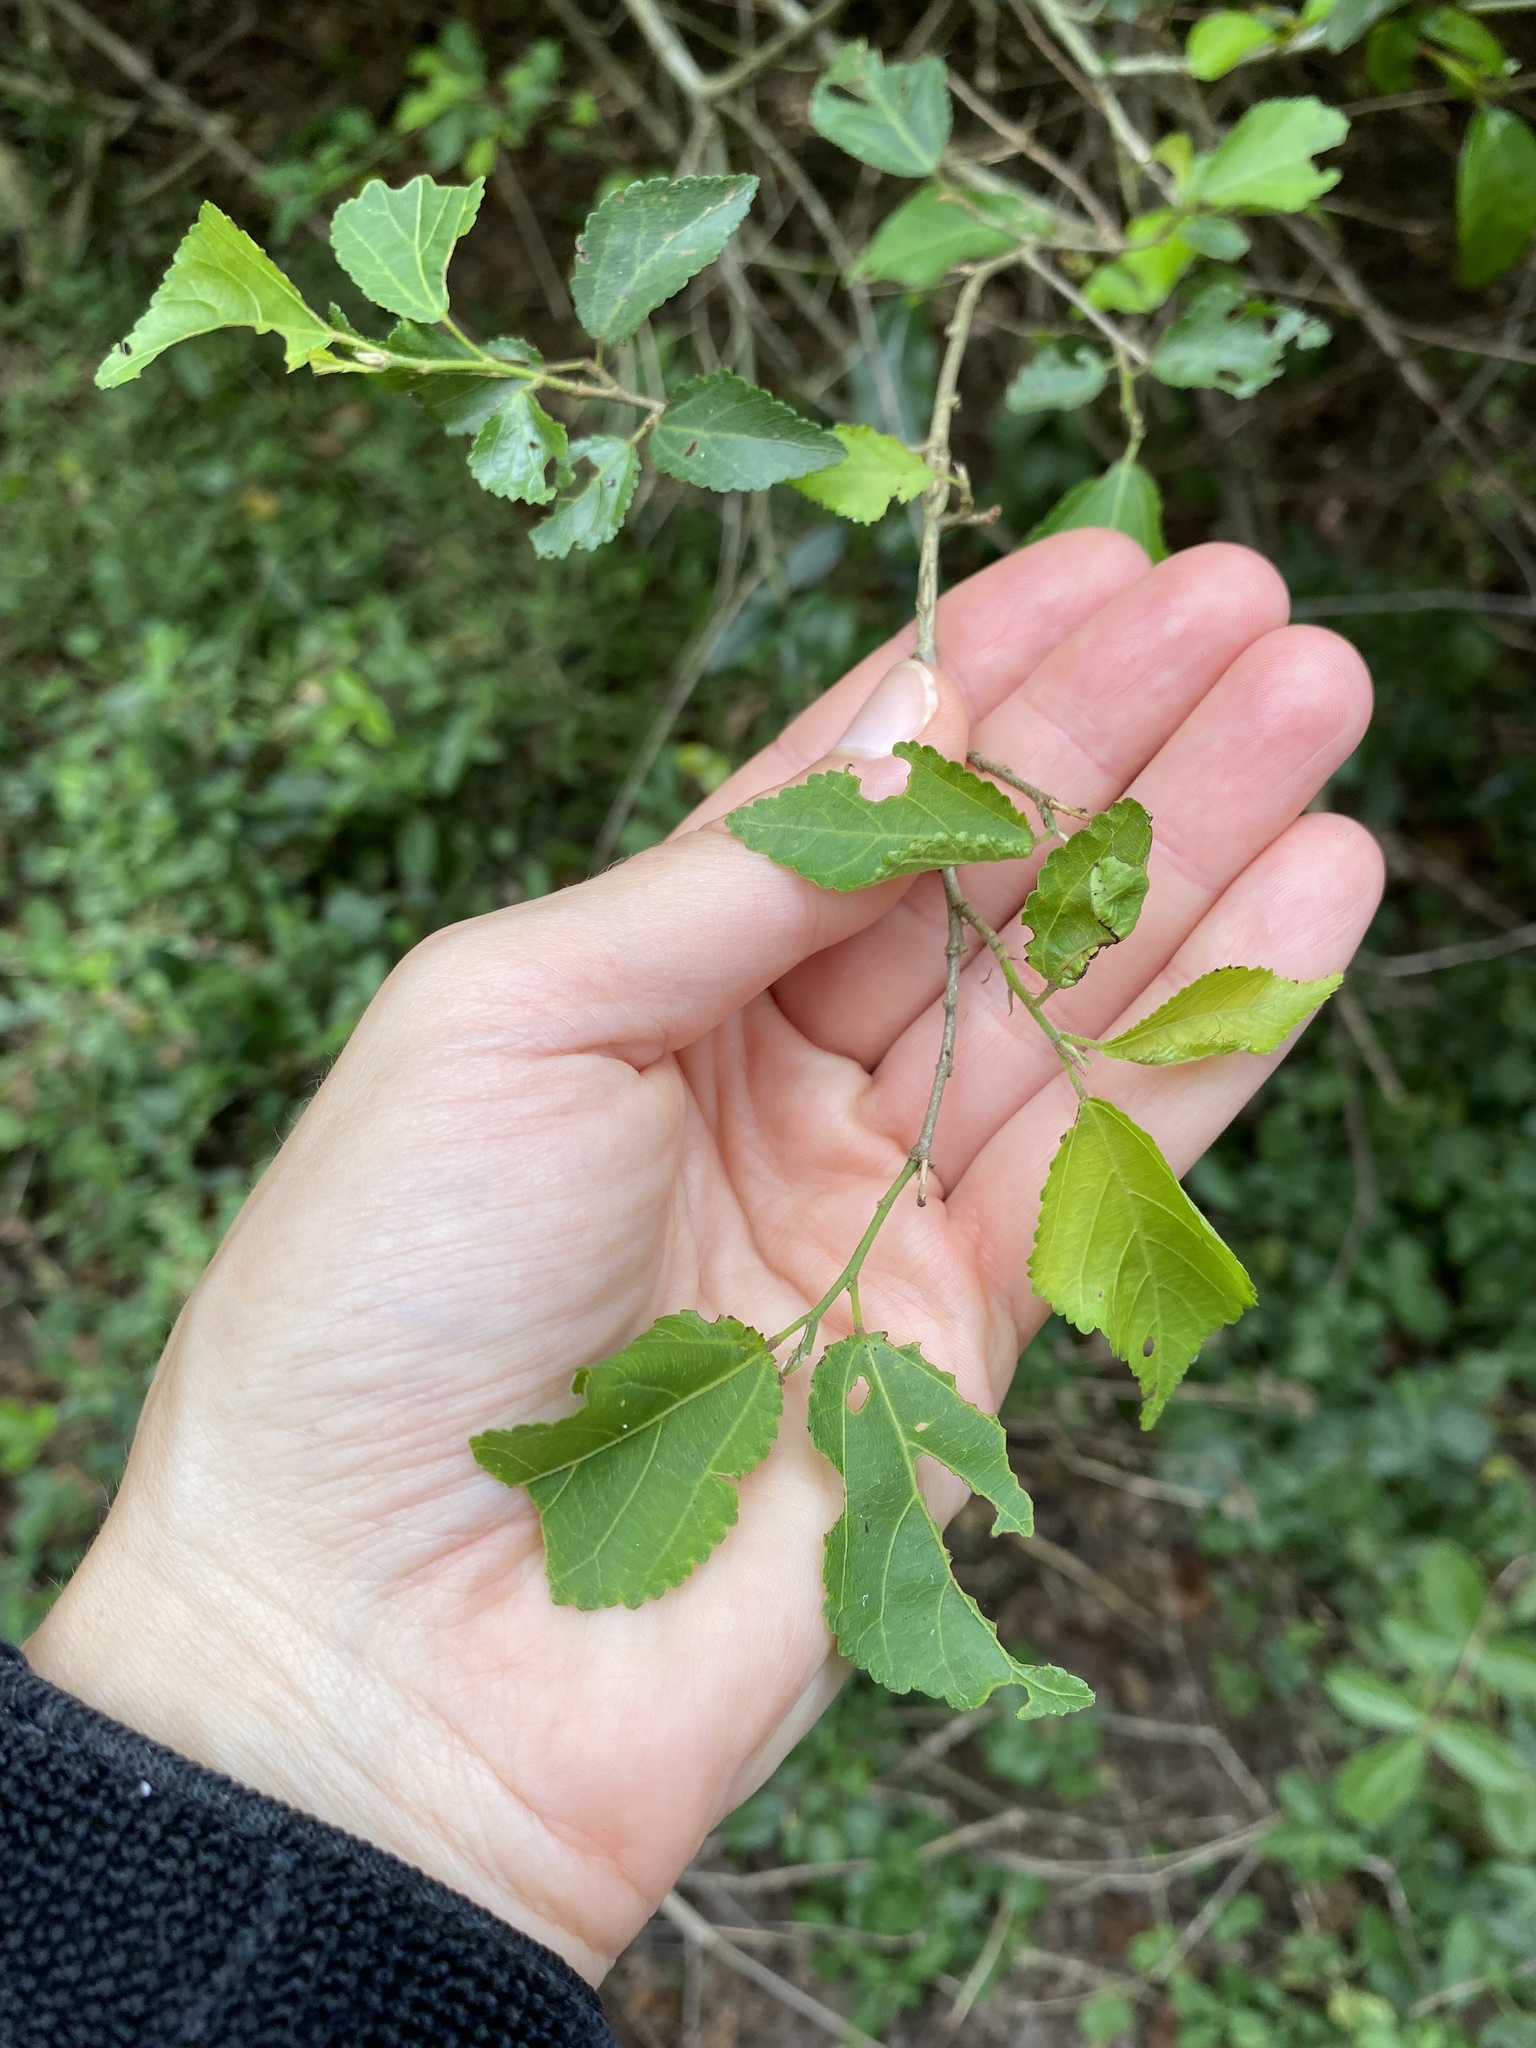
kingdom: Plantae
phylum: Tracheophyta
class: Magnoliopsida
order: Malvales
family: Malvaceae
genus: Grewia
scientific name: Grewia occidentalis
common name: Crossberry
